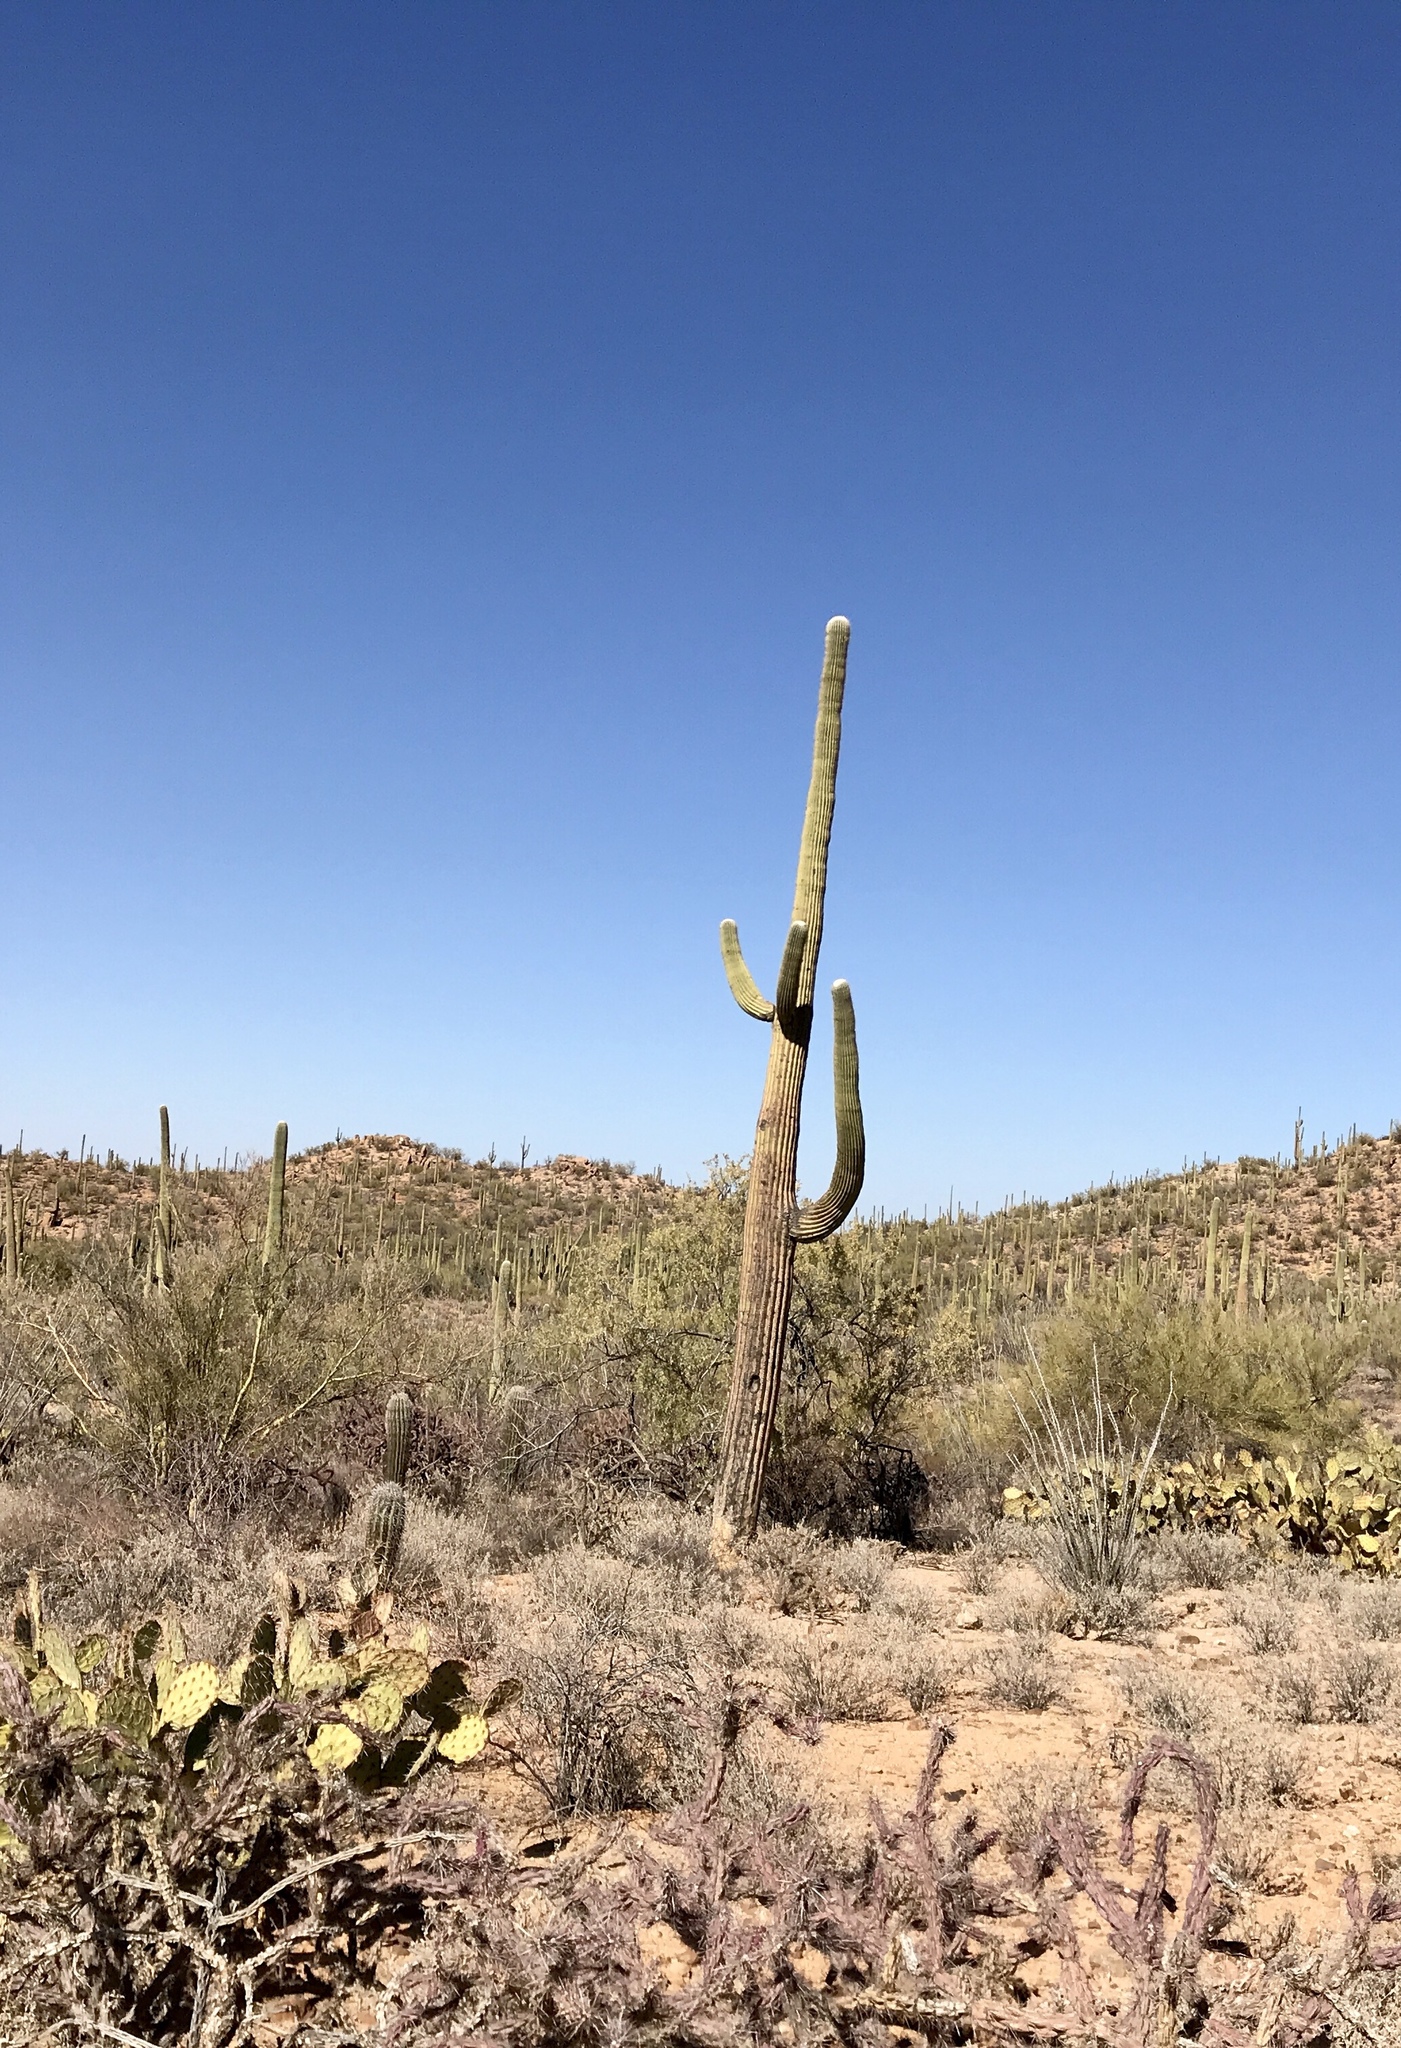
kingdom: Plantae
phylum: Tracheophyta
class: Magnoliopsida
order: Caryophyllales
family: Cactaceae
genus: Carnegiea
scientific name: Carnegiea gigantea
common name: Saguaro
